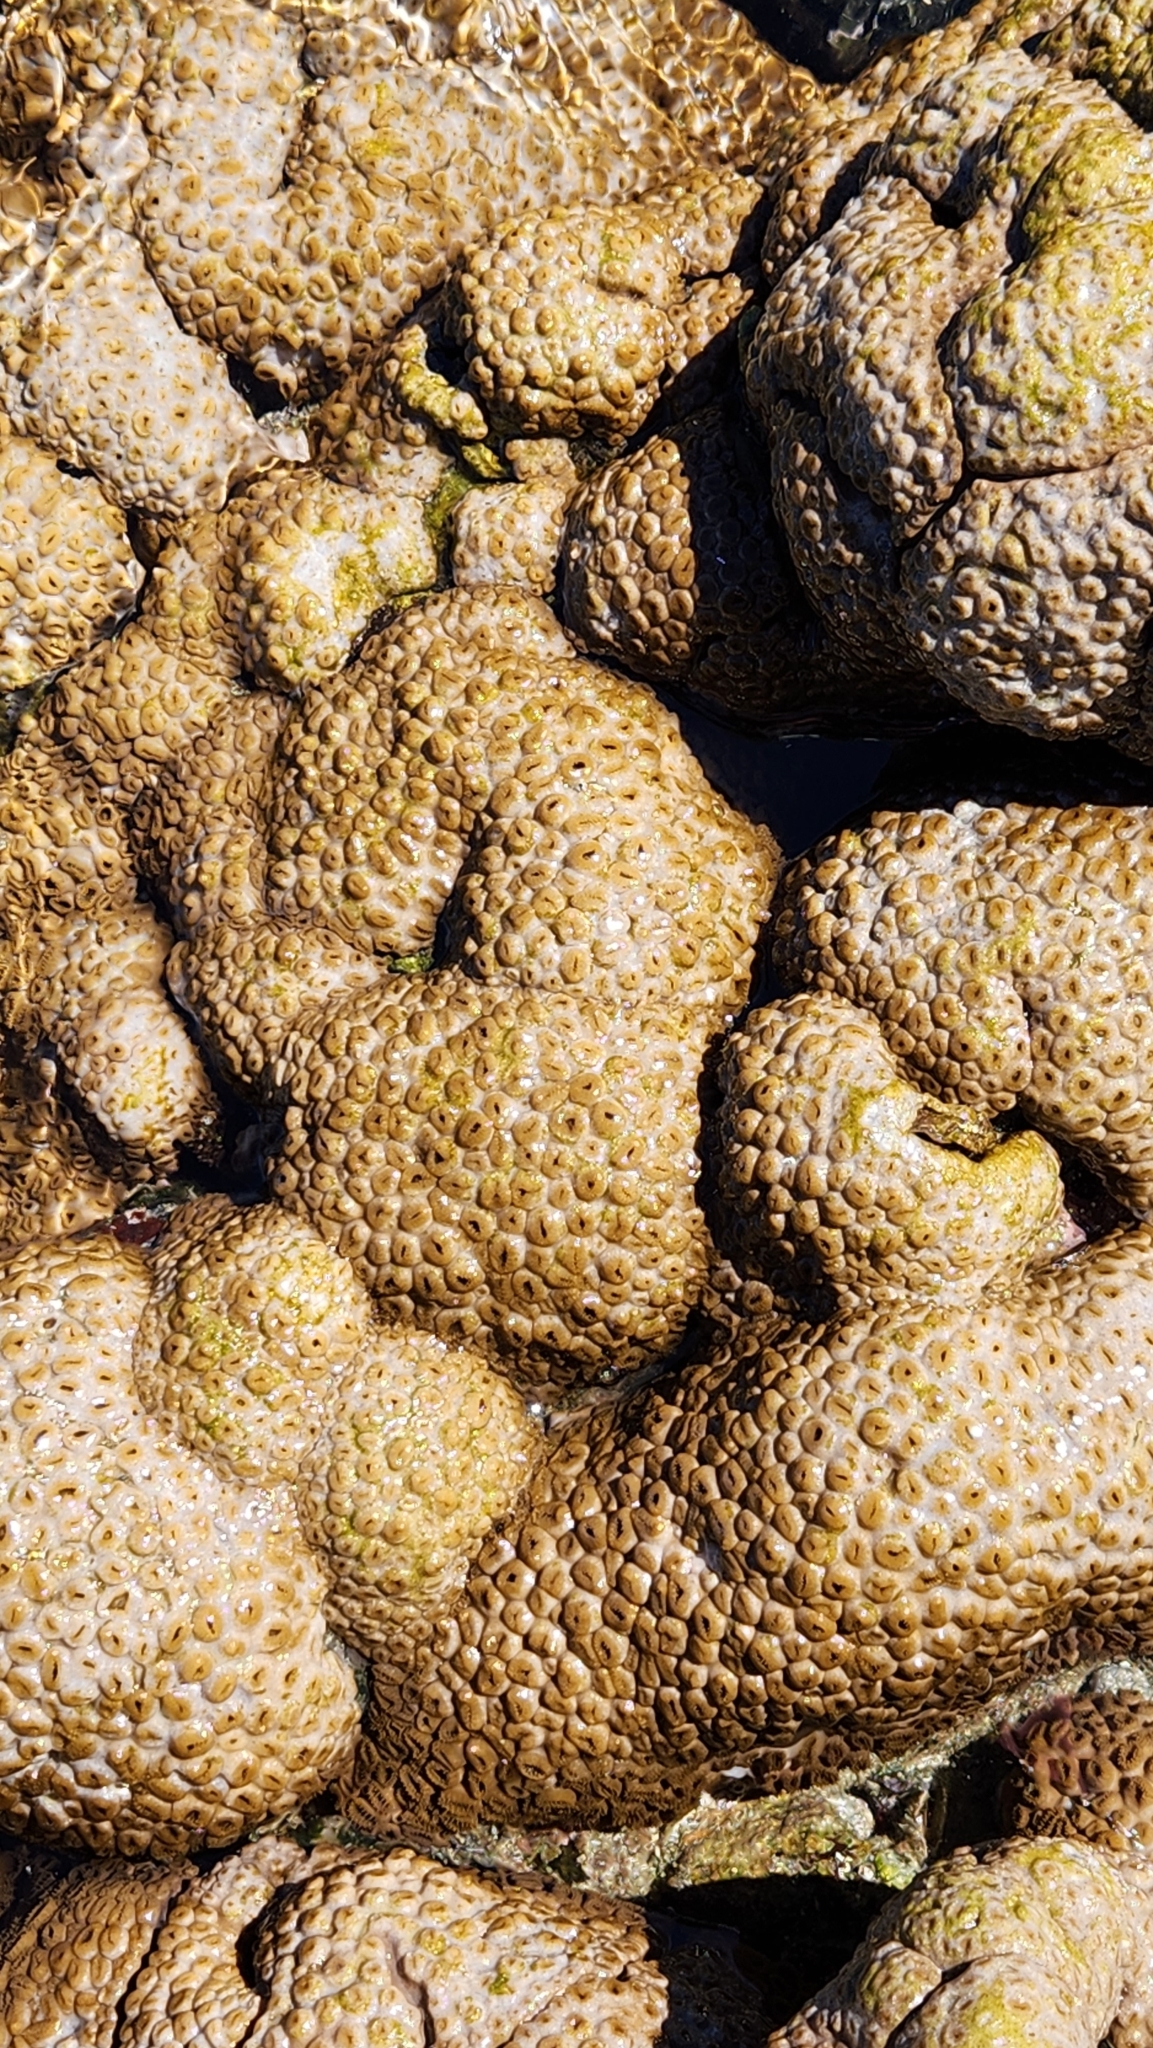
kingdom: Animalia
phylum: Cnidaria
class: Anthozoa
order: Zoantharia
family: Sphenopidae
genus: Palythoa
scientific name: Palythoa tuberculosa
